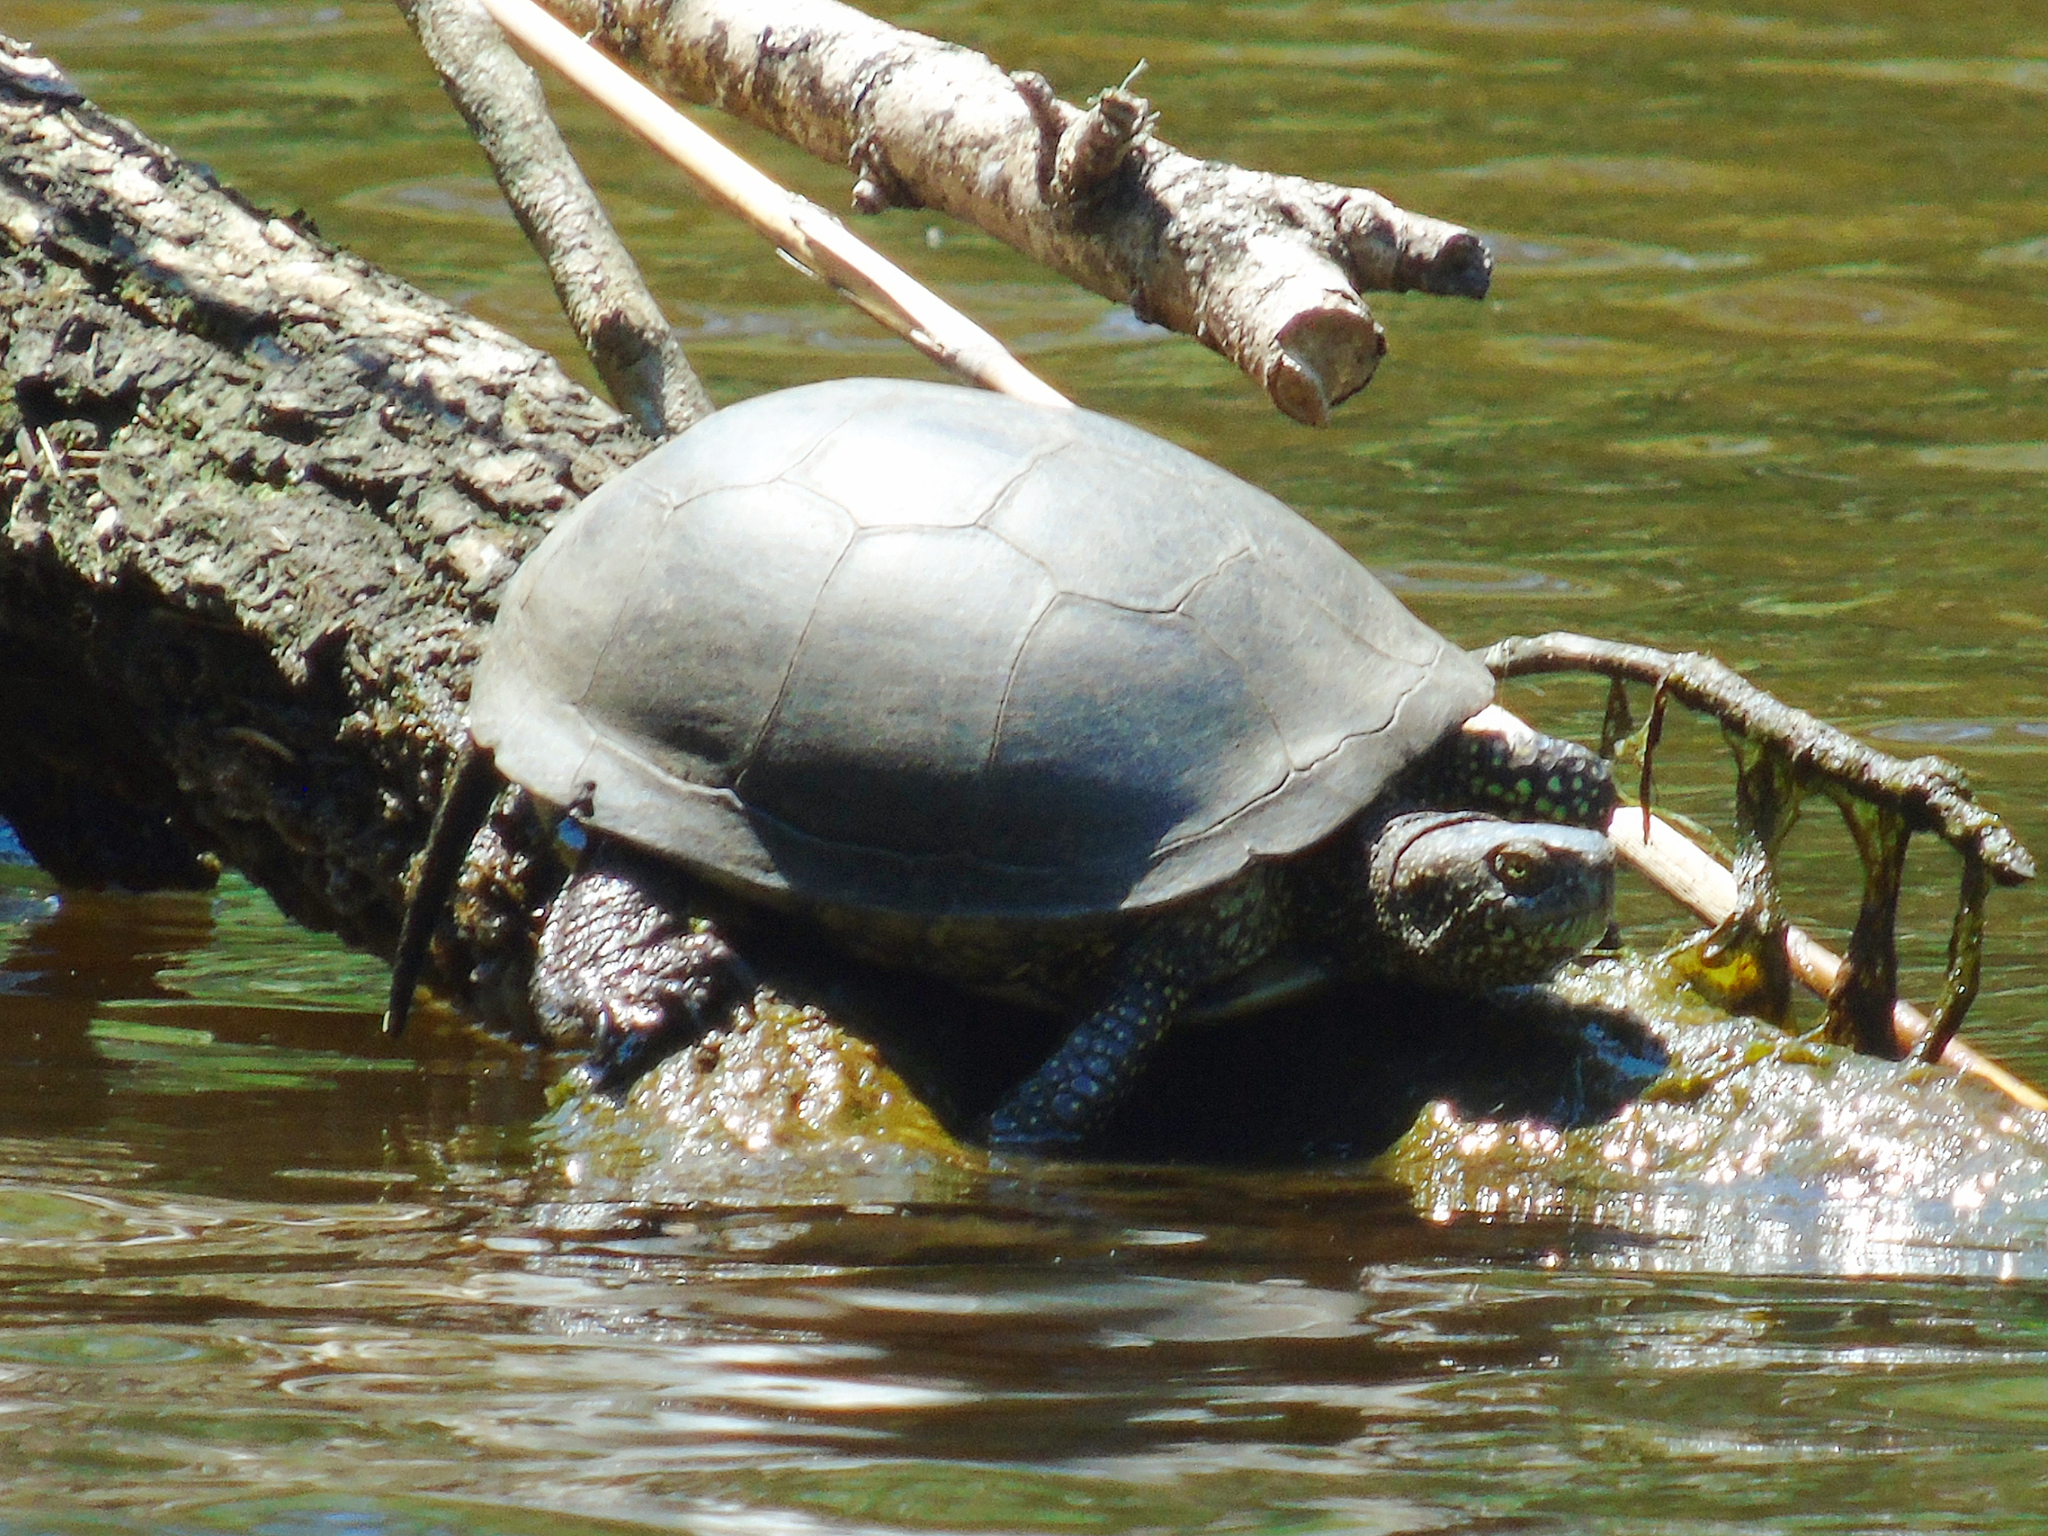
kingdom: Animalia
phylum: Chordata
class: Testudines
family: Emydidae
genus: Emys
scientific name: Emys orbicularis
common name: European pond turtle
